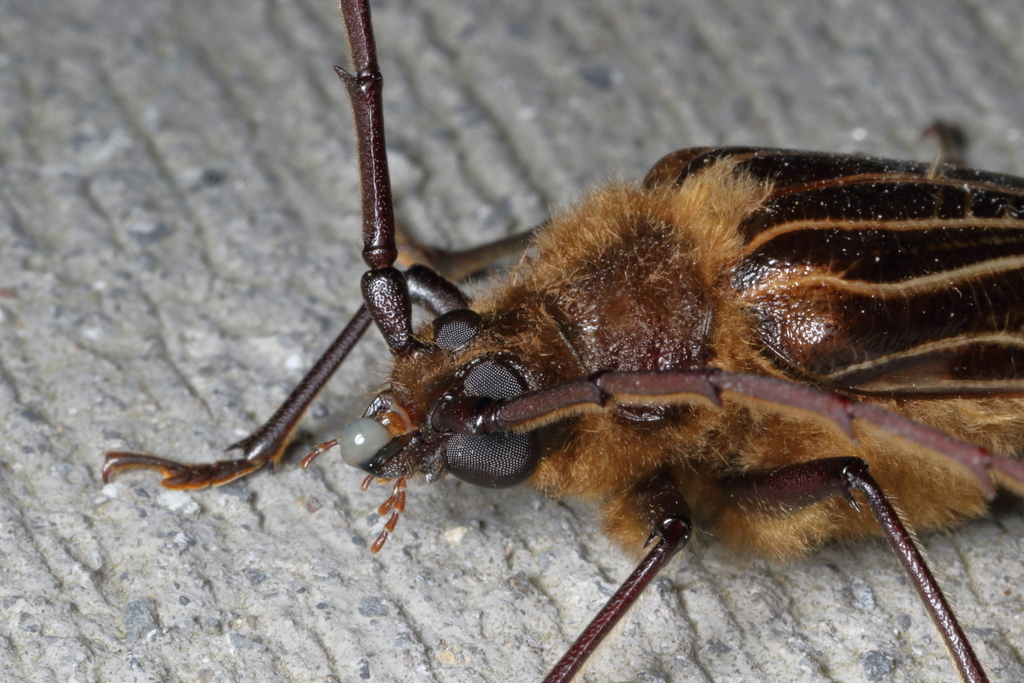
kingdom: Animalia
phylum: Arthropoda
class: Insecta
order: Coleoptera
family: Cerambycidae
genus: Prionoplus
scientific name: Prionoplus reticularis
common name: Huhu beetle
